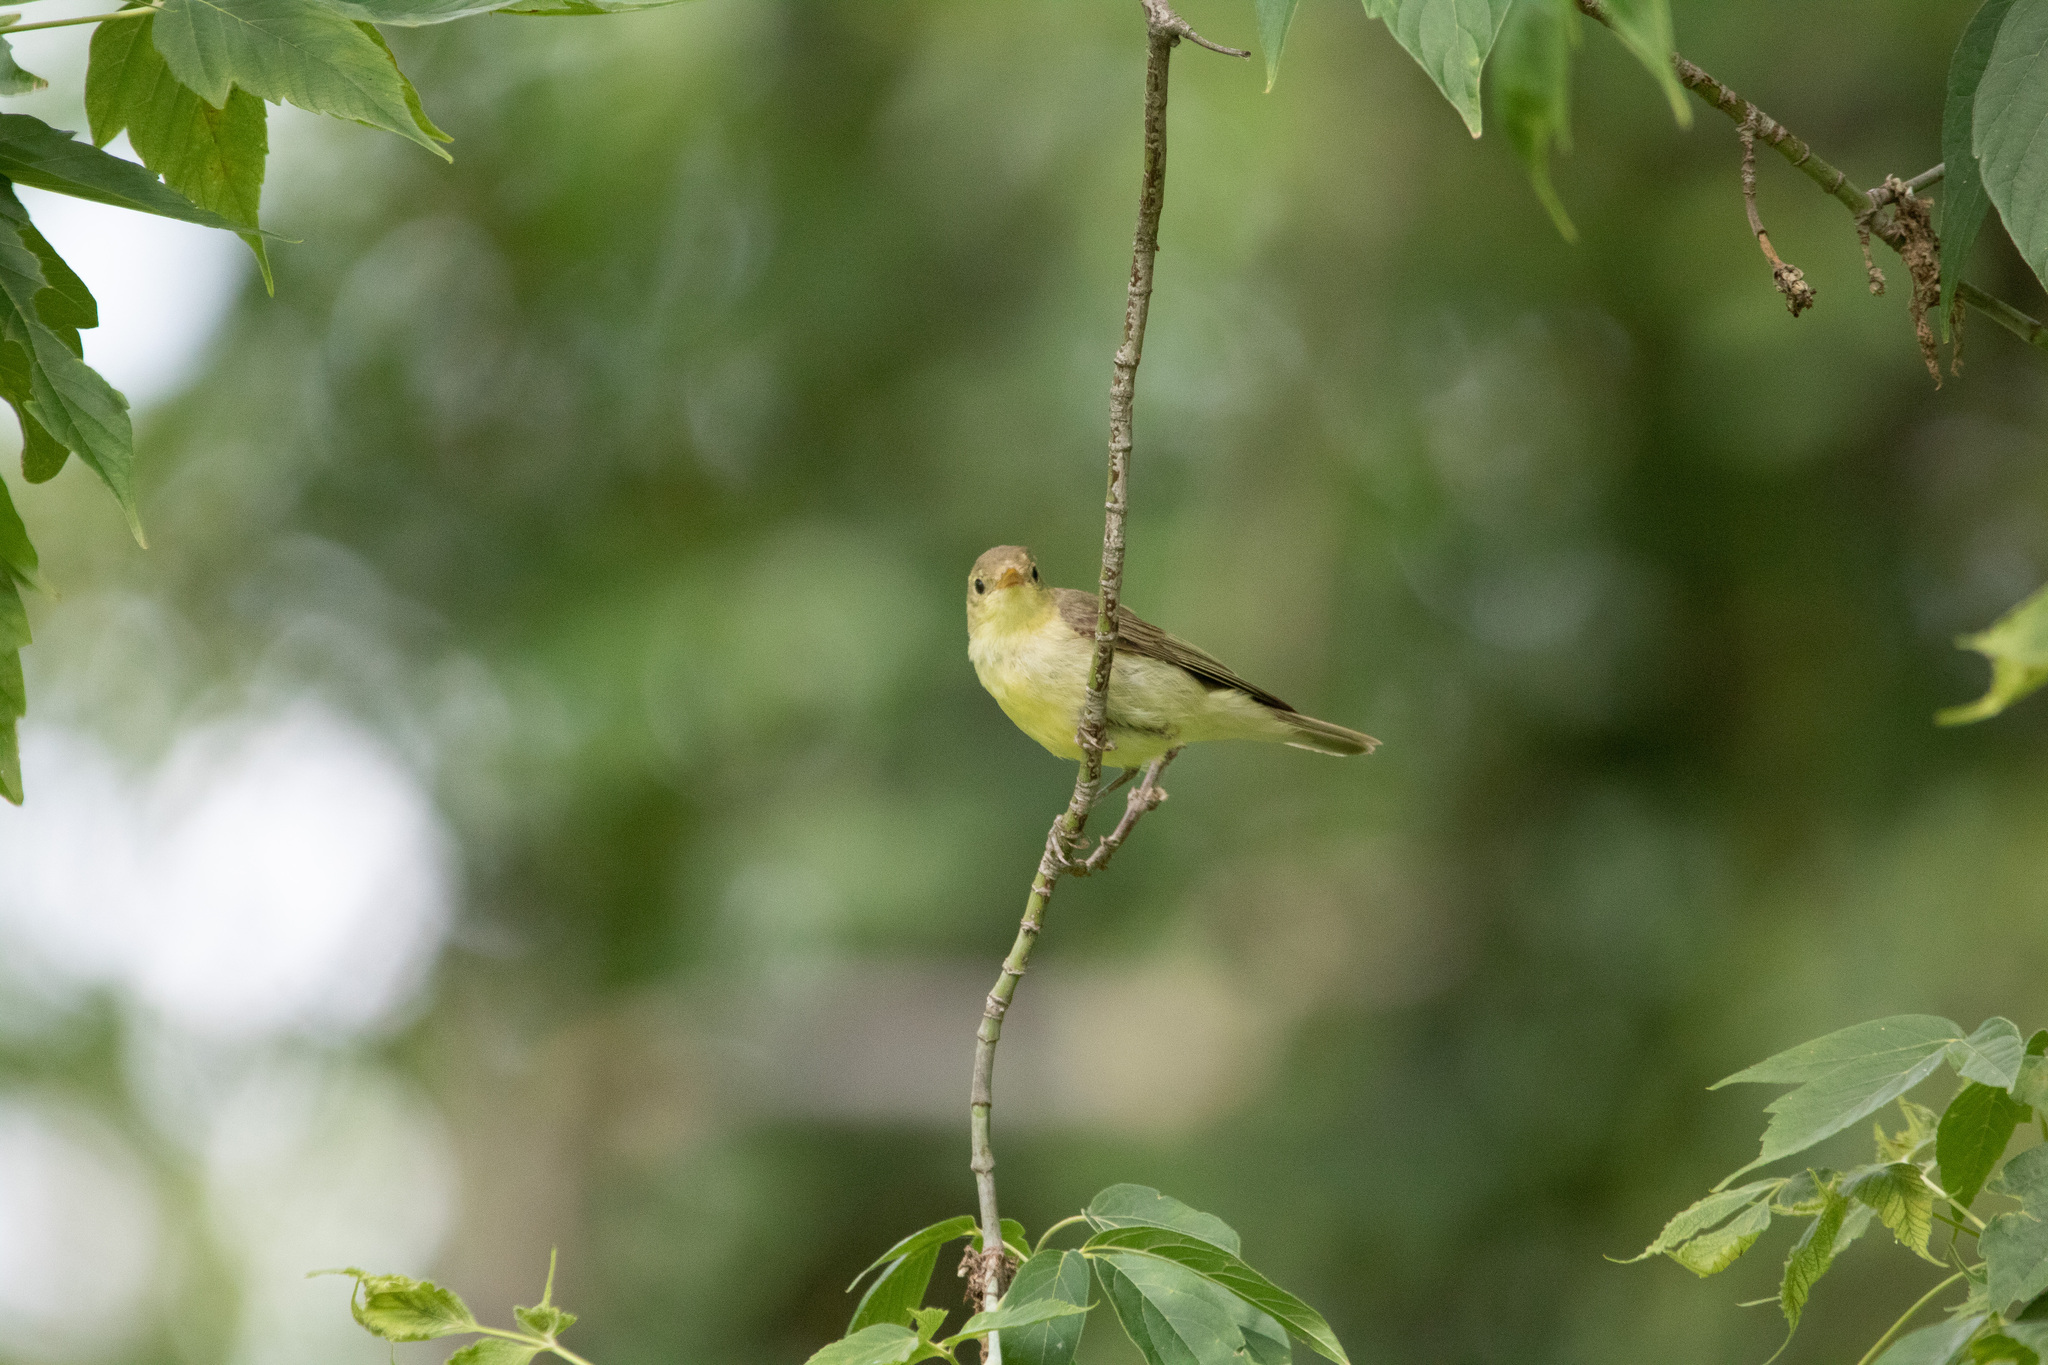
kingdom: Animalia
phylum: Chordata
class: Aves
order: Passeriformes
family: Acrocephalidae
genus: Hippolais
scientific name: Hippolais icterina
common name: Icterine warbler
